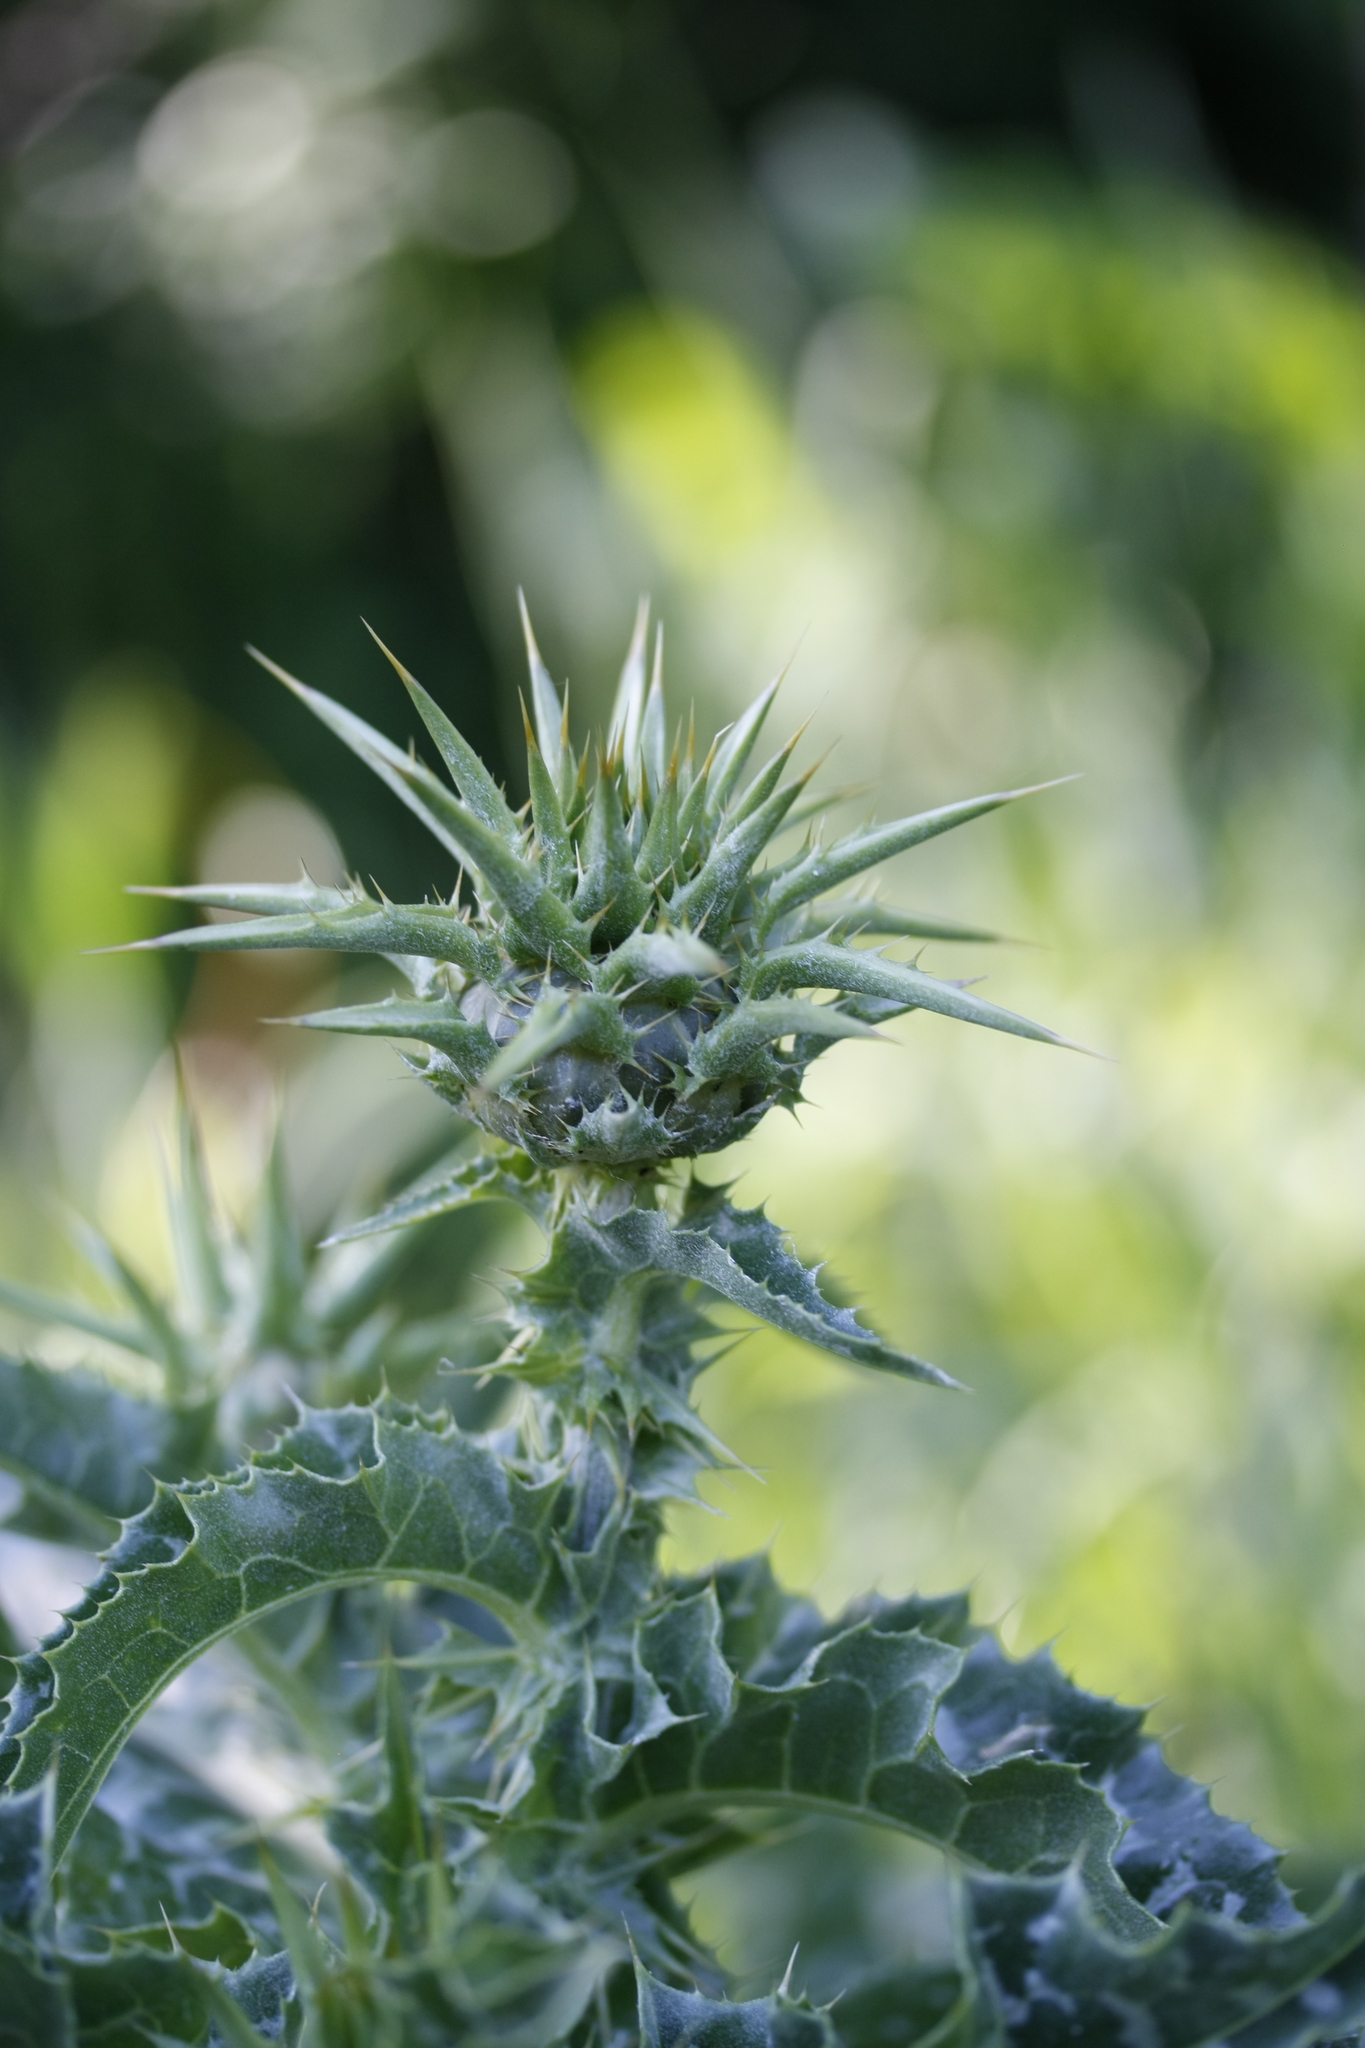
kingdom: Plantae
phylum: Tracheophyta
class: Magnoliopsida
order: Asterales
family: Asteraceae
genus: Silybum
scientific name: Silybum marianum
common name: Milk thistle
